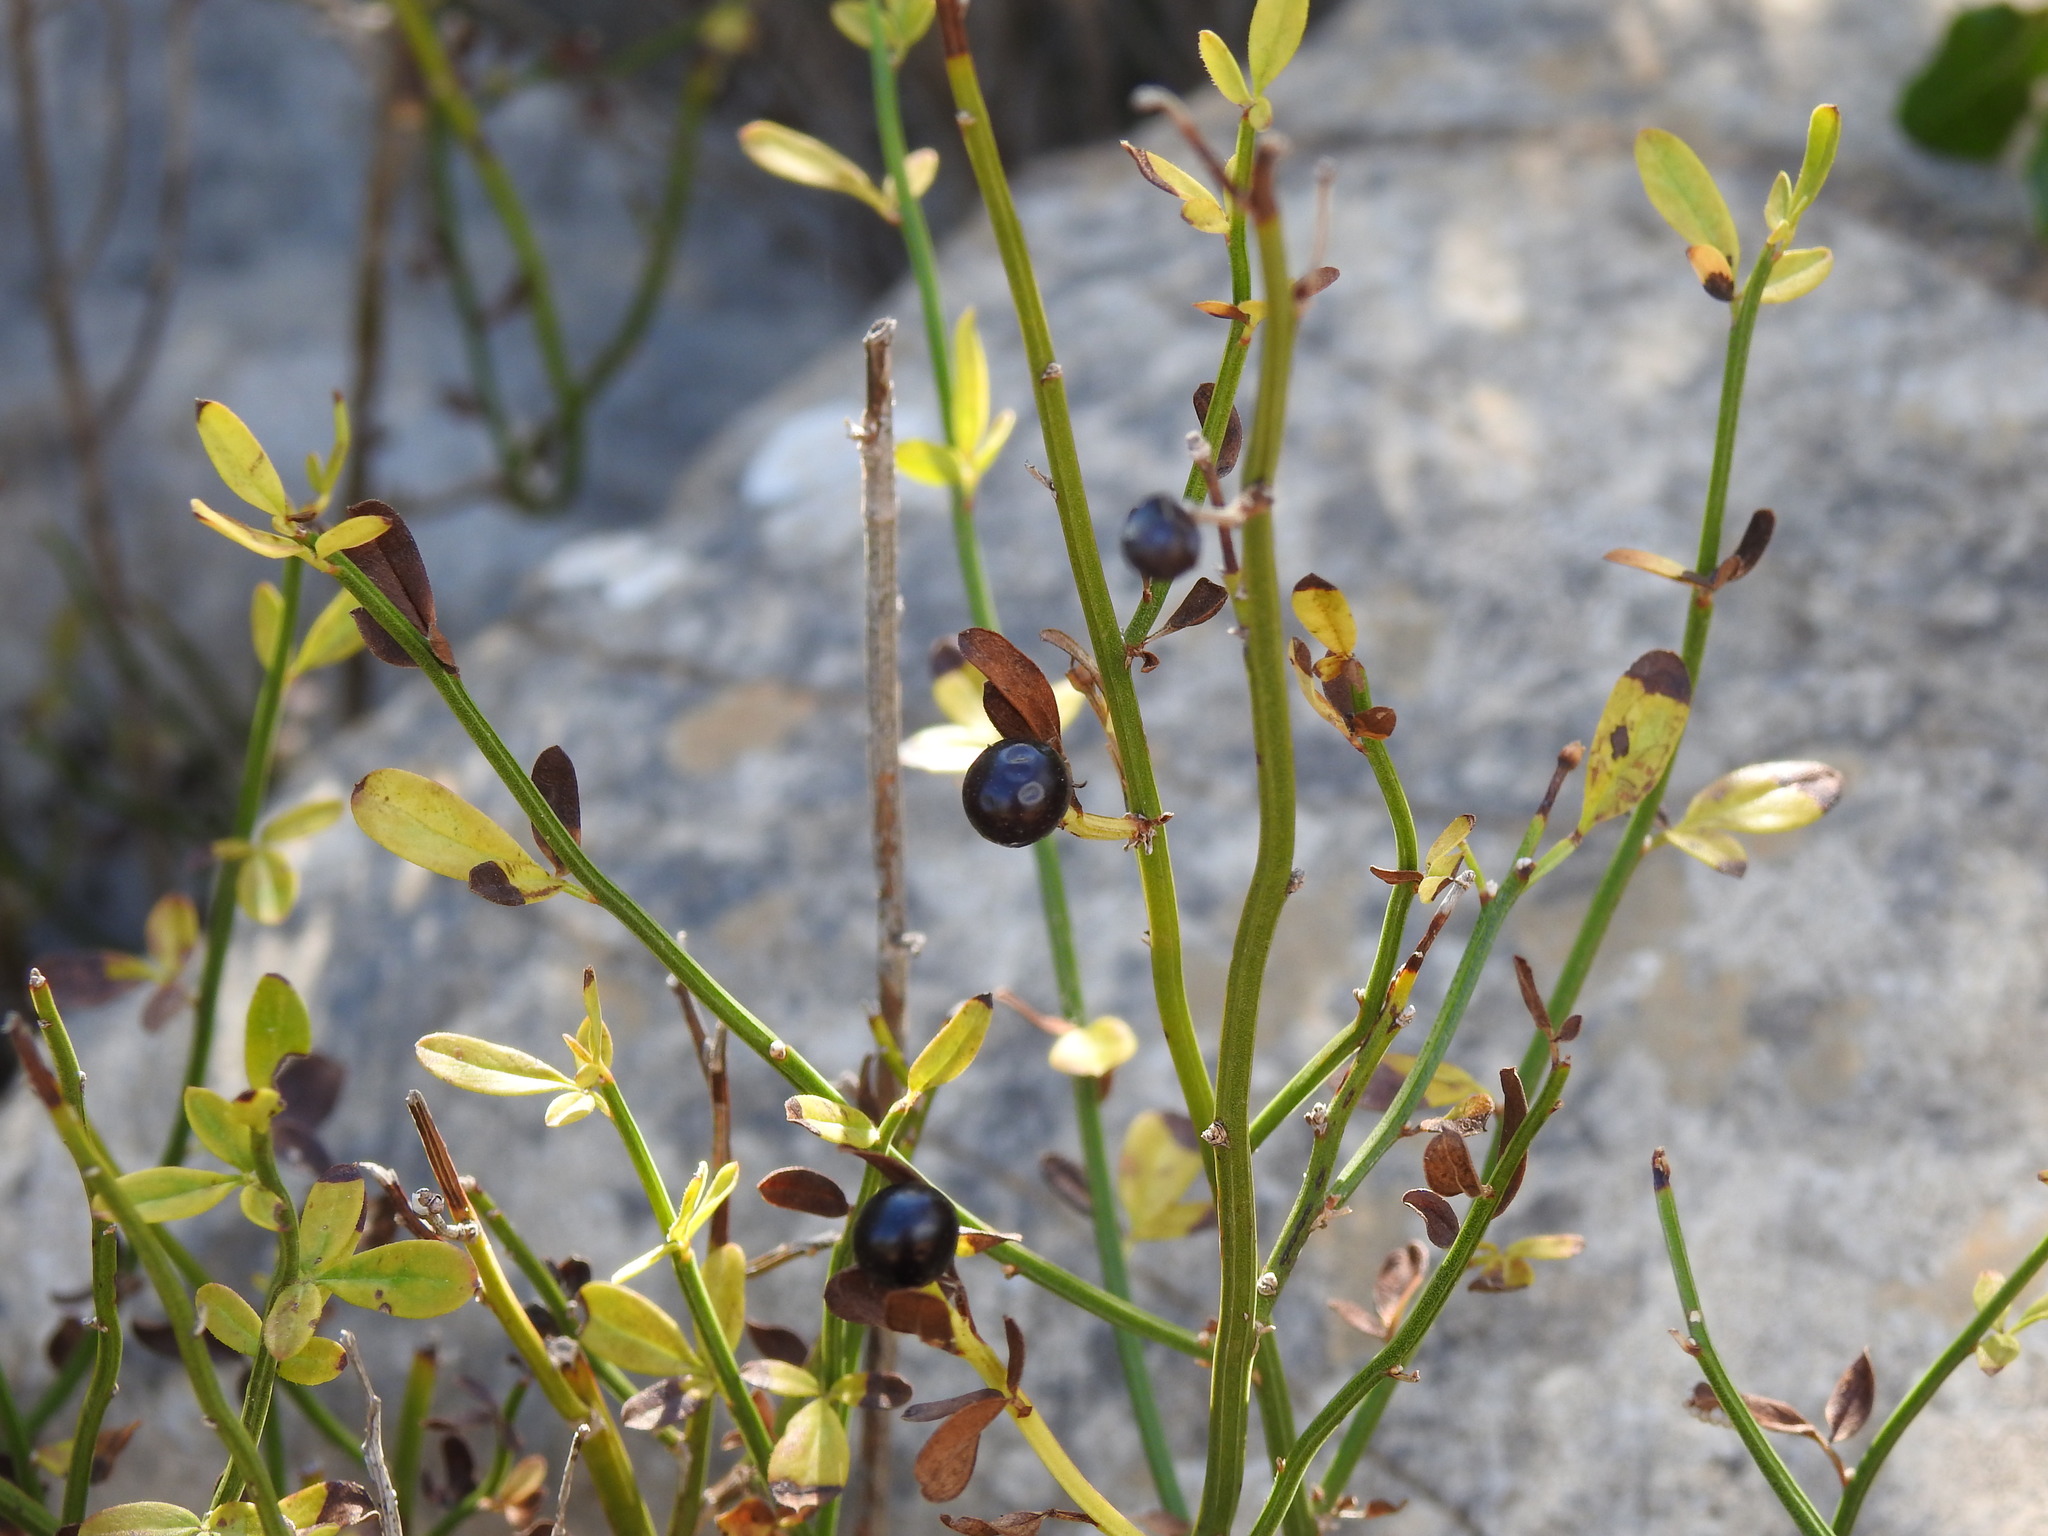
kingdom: Plantae
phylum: Tracheophyta
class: Magnoliopsida
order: Lamiales
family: Oleaceae
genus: Chrysojasminum
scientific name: Chrysojasminum fruticans
